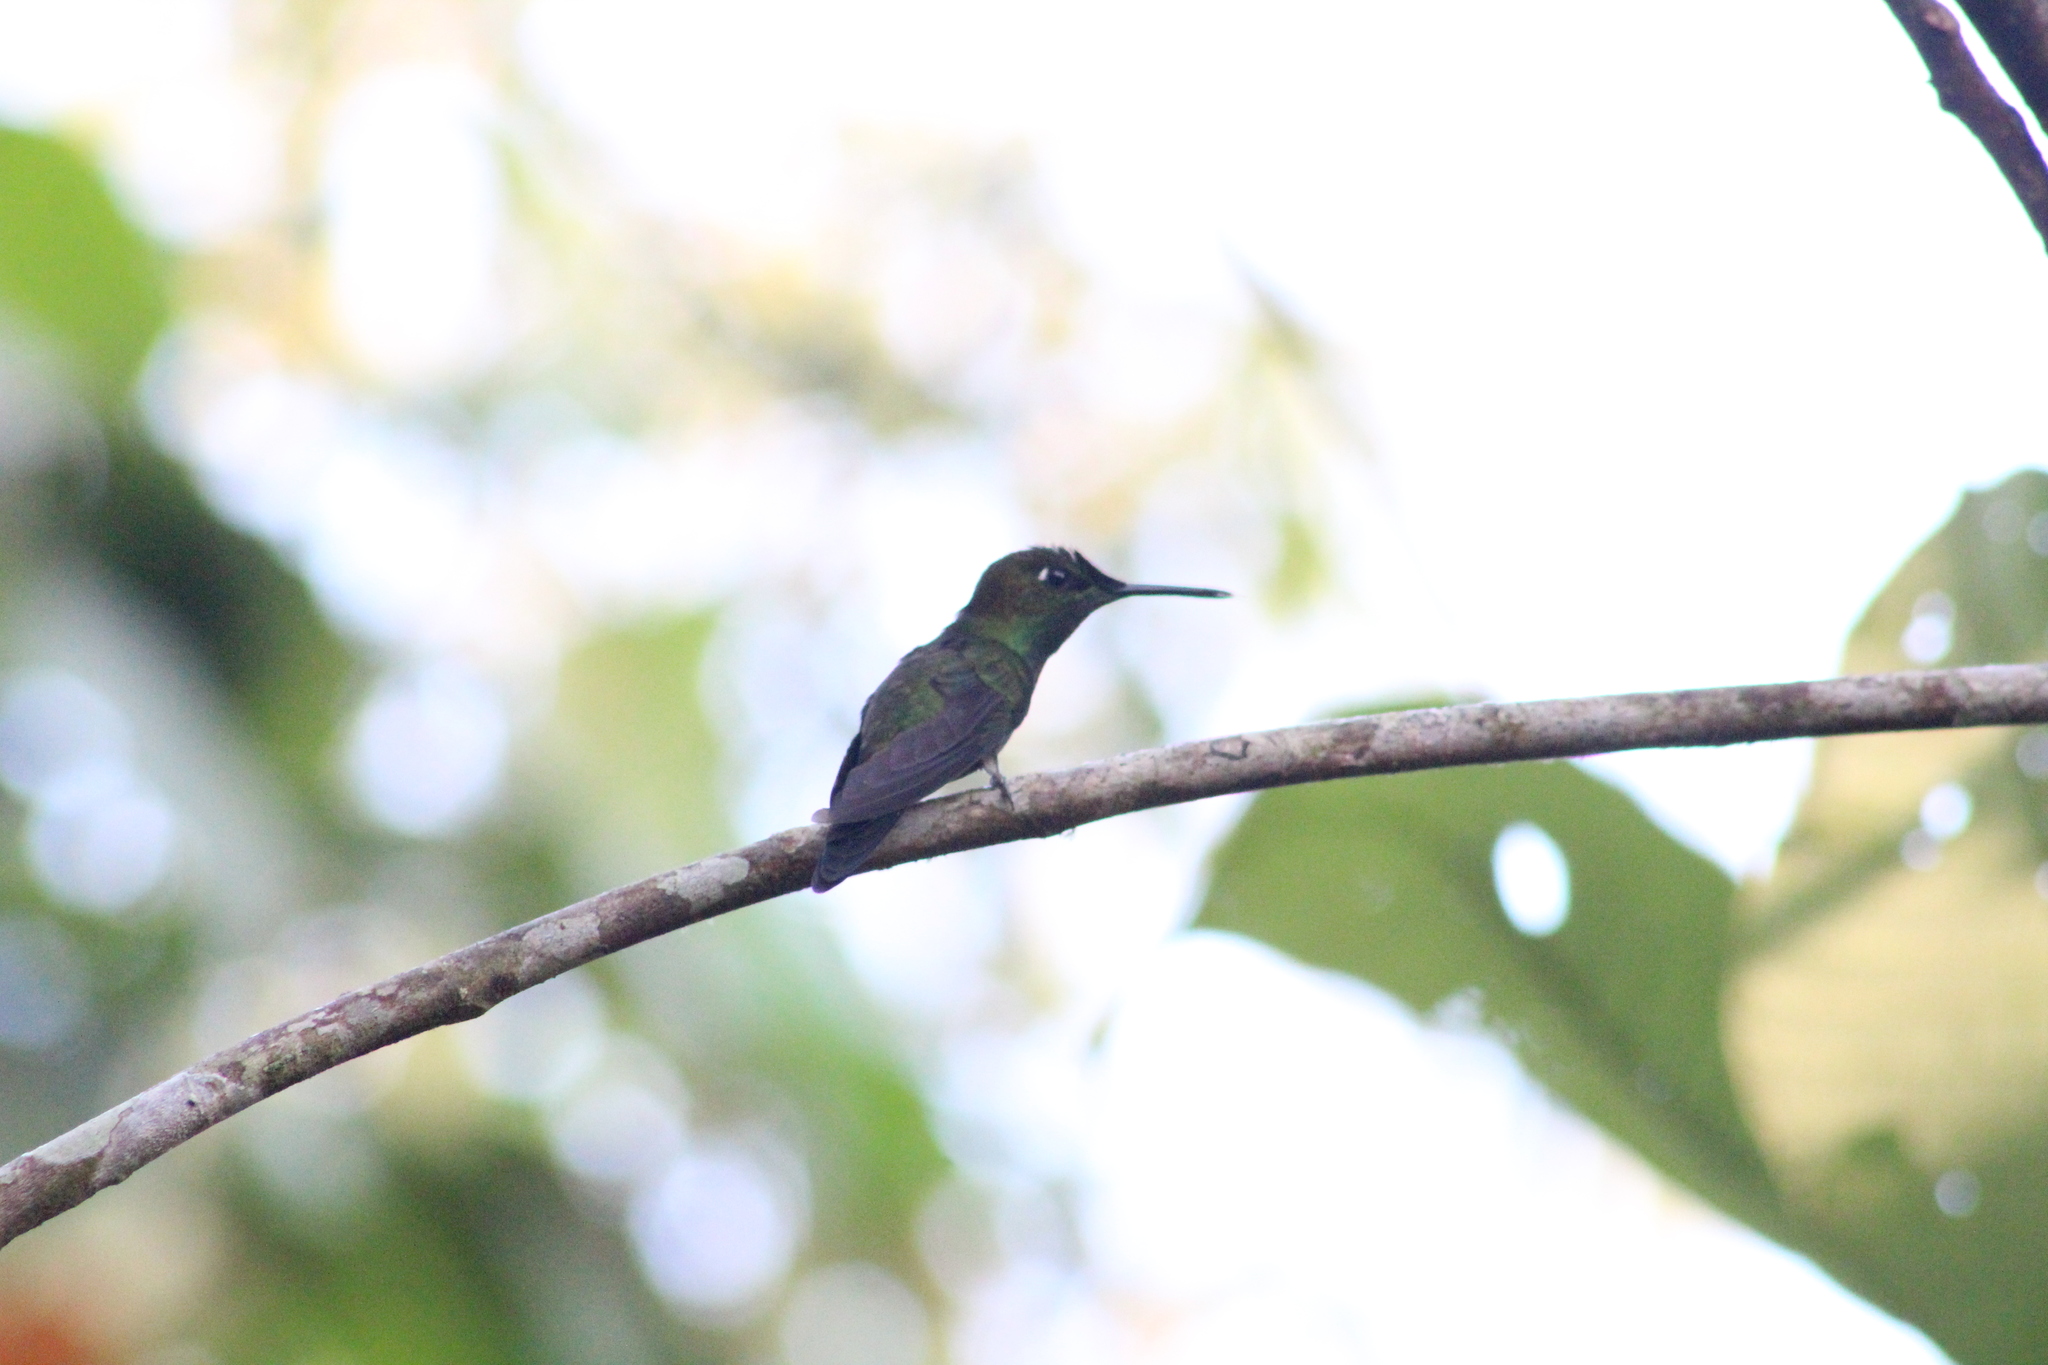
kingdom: Animalia
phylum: Chordata
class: Aves
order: Apodiformes
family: Trochilidae
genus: Heliodoxa
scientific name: Heliodoxa leadbeateri
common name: Violet-fronted brilliant
